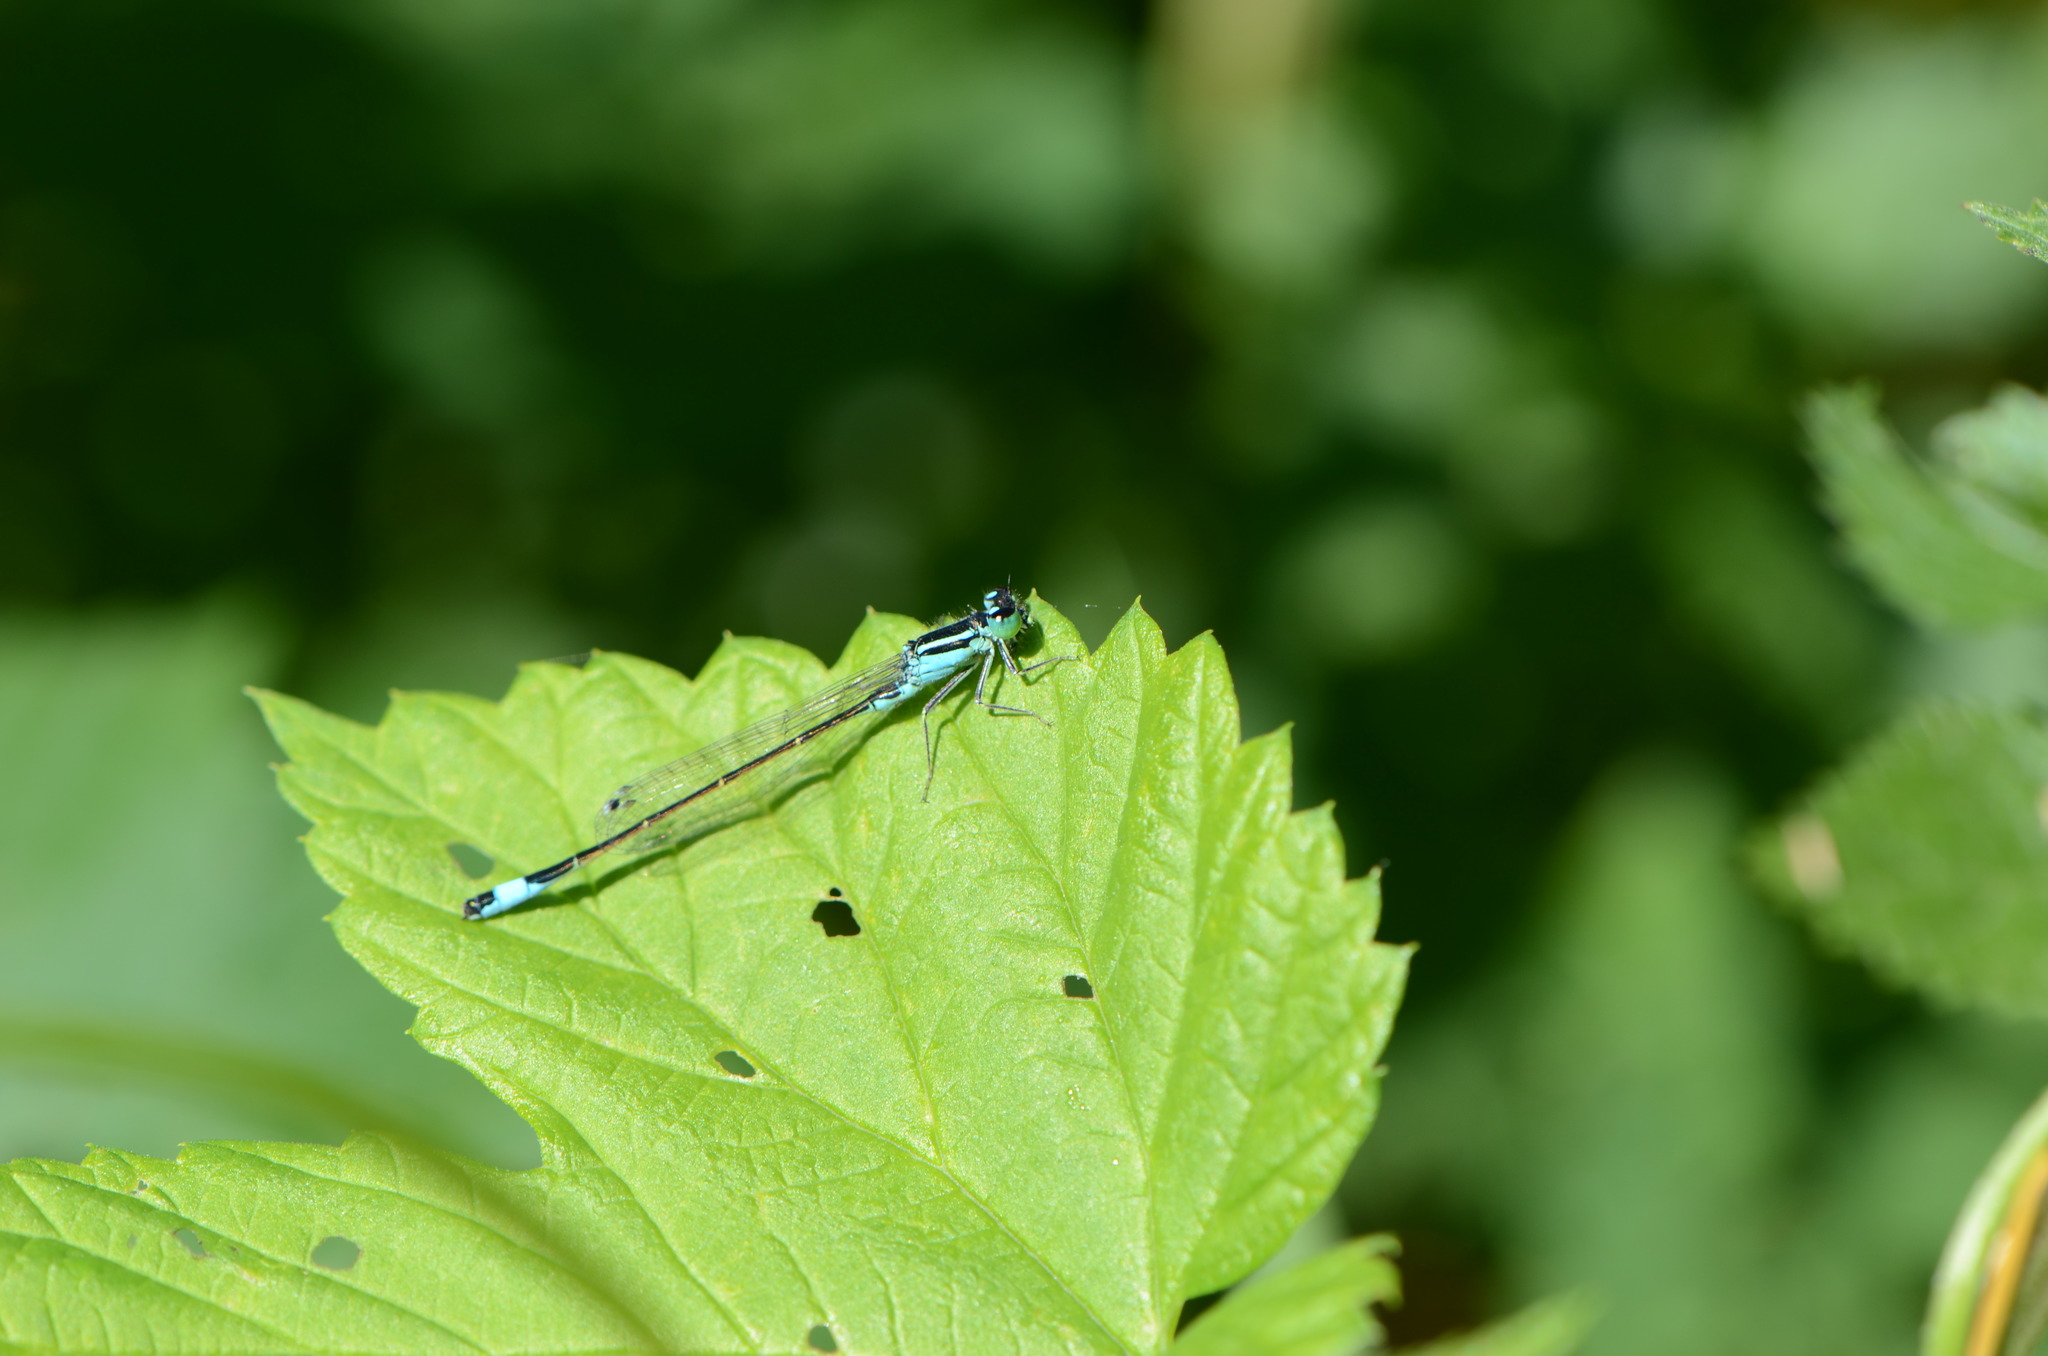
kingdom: Animalia
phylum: Arthropoda
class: Insecta
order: Odonata
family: Coenagrionidae
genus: Ischnura
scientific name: Ischnura elegans
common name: Blue-tailed damselfly
